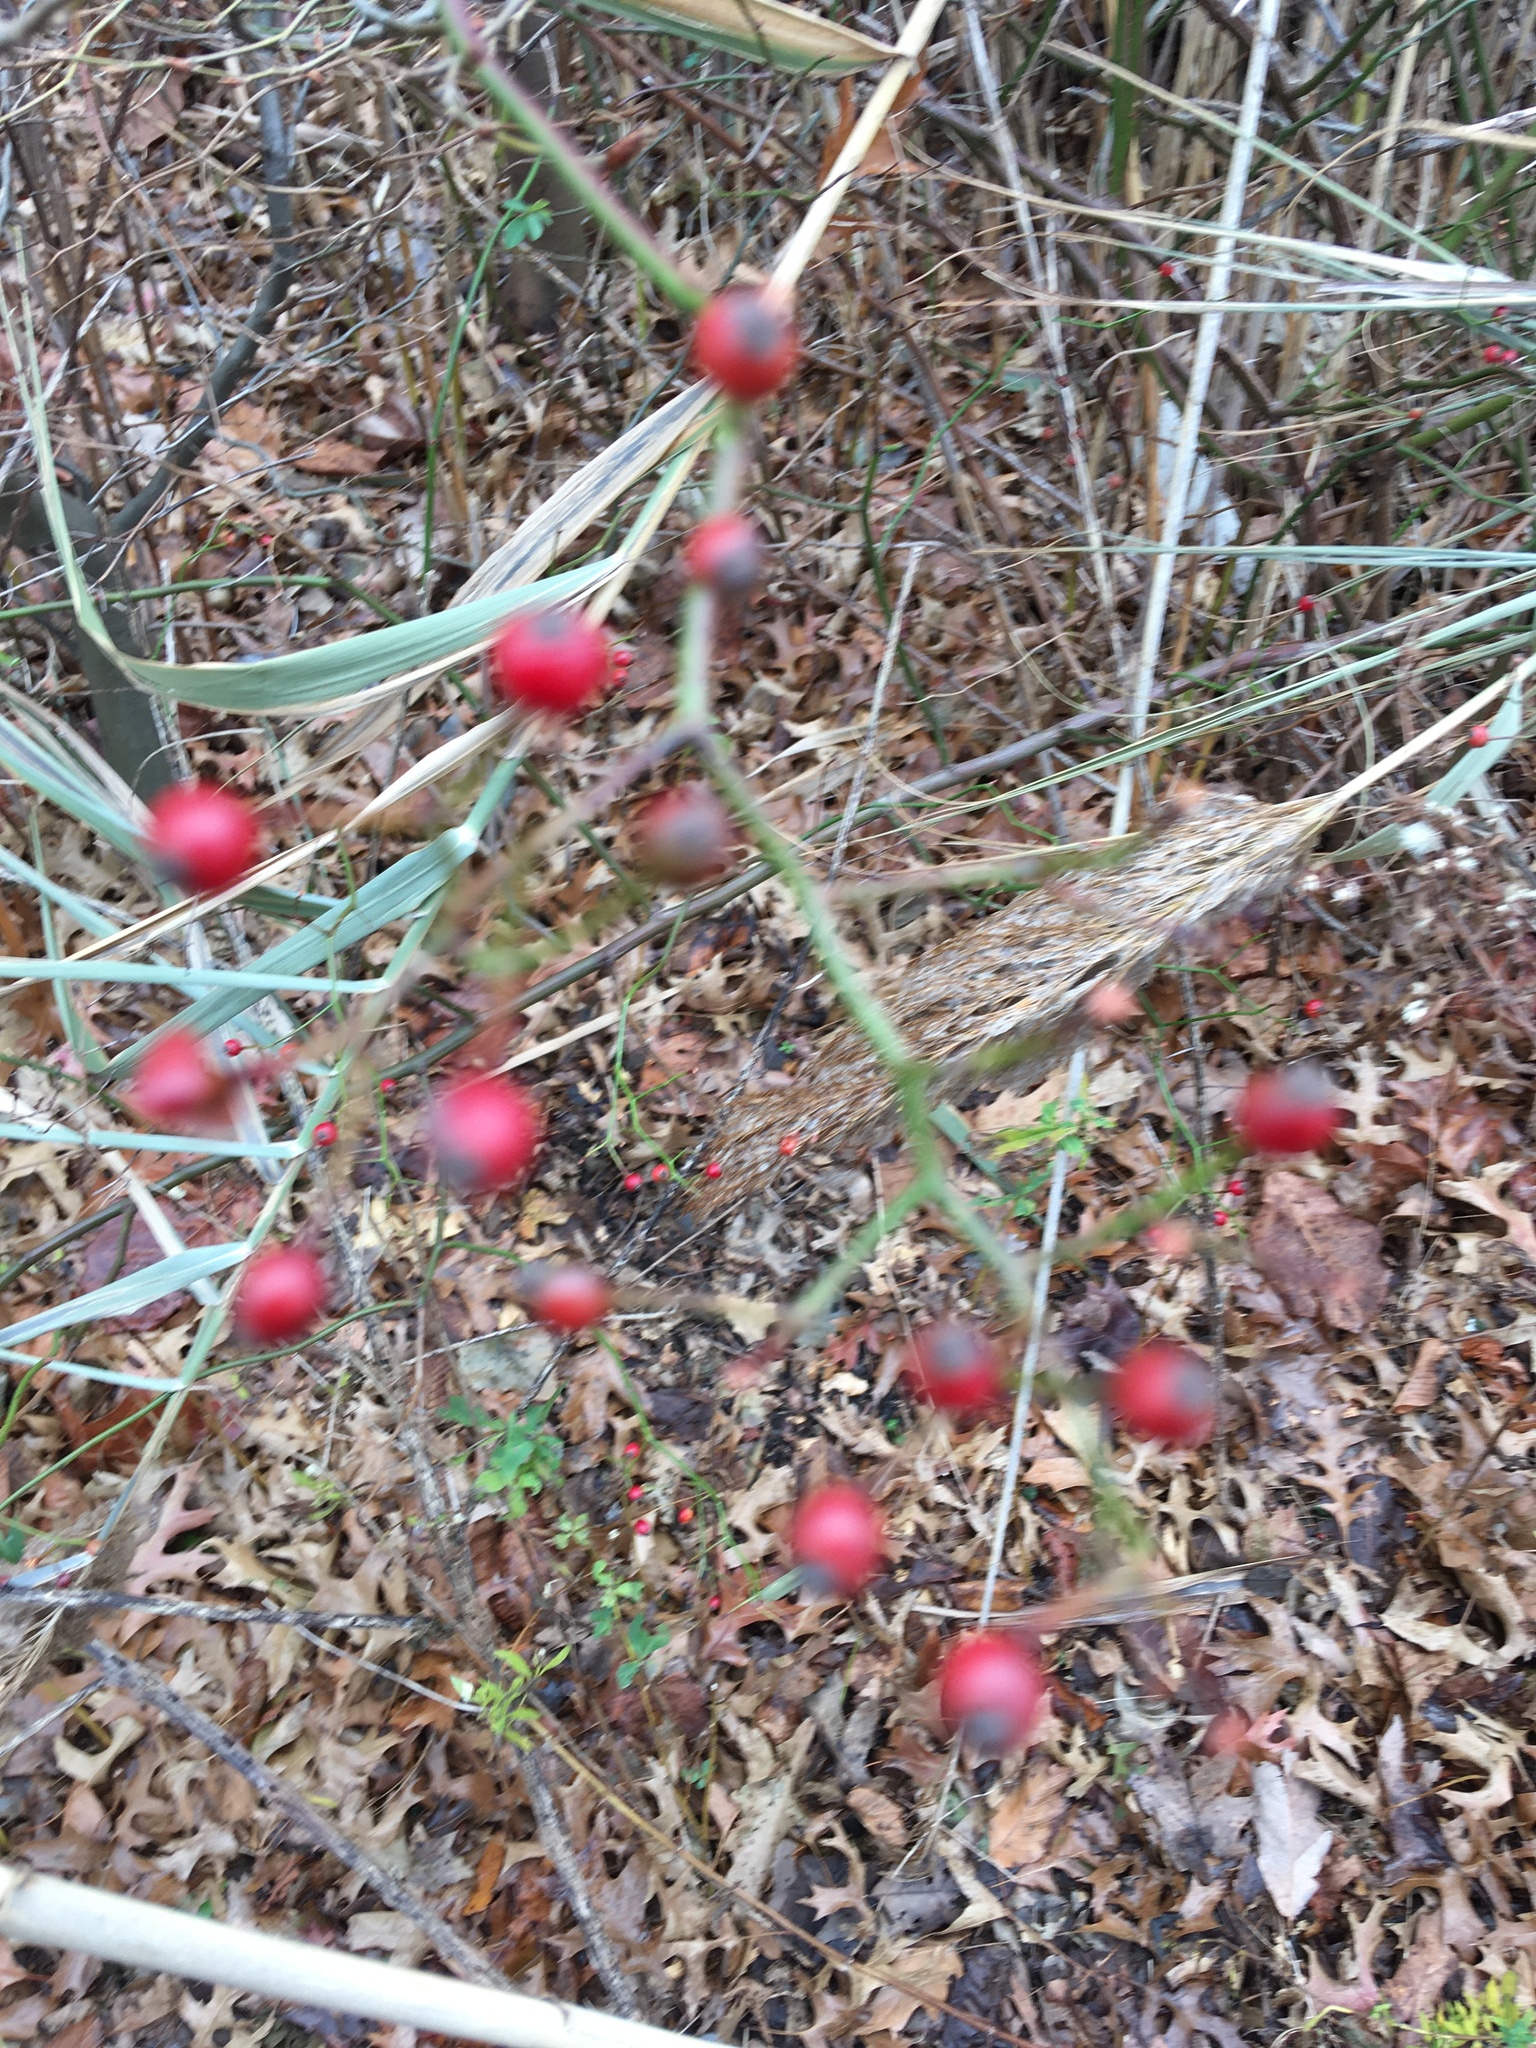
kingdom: Plantae
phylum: Tracheophyta
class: Magnoliopsida
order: Rosales
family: Rosaceae
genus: Rosa
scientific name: Rosa multiflora
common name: Multiflora rose
